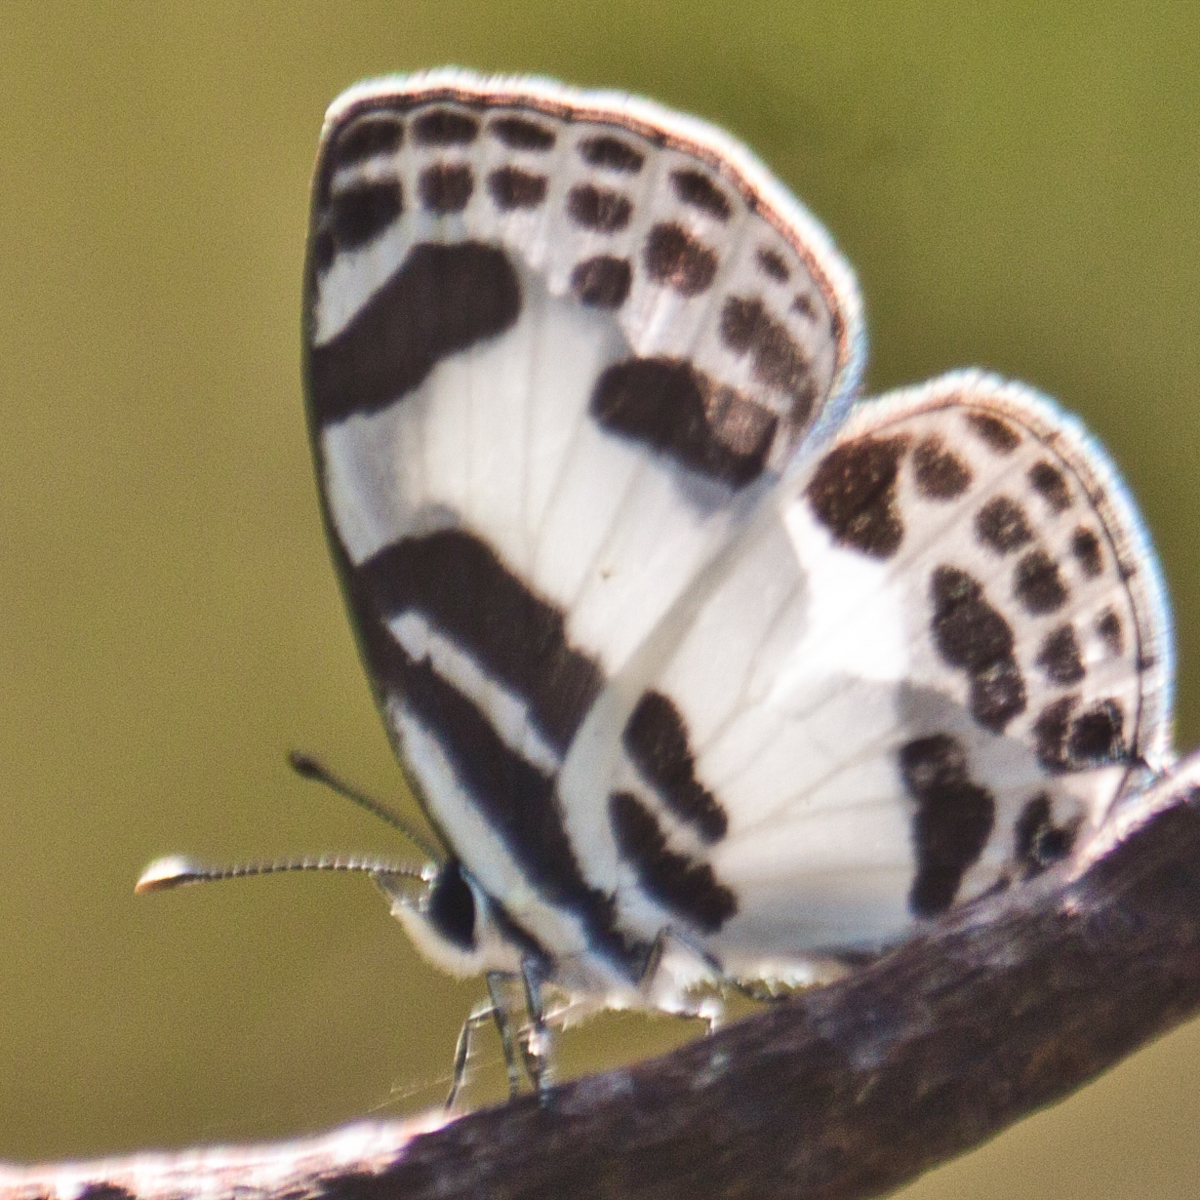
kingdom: Animalia
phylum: Arthropoda
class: Insecta
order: Lepidoptera
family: Lycaenidae
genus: Discolampa
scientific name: Discolampa ethion
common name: Banded blue pierrot
